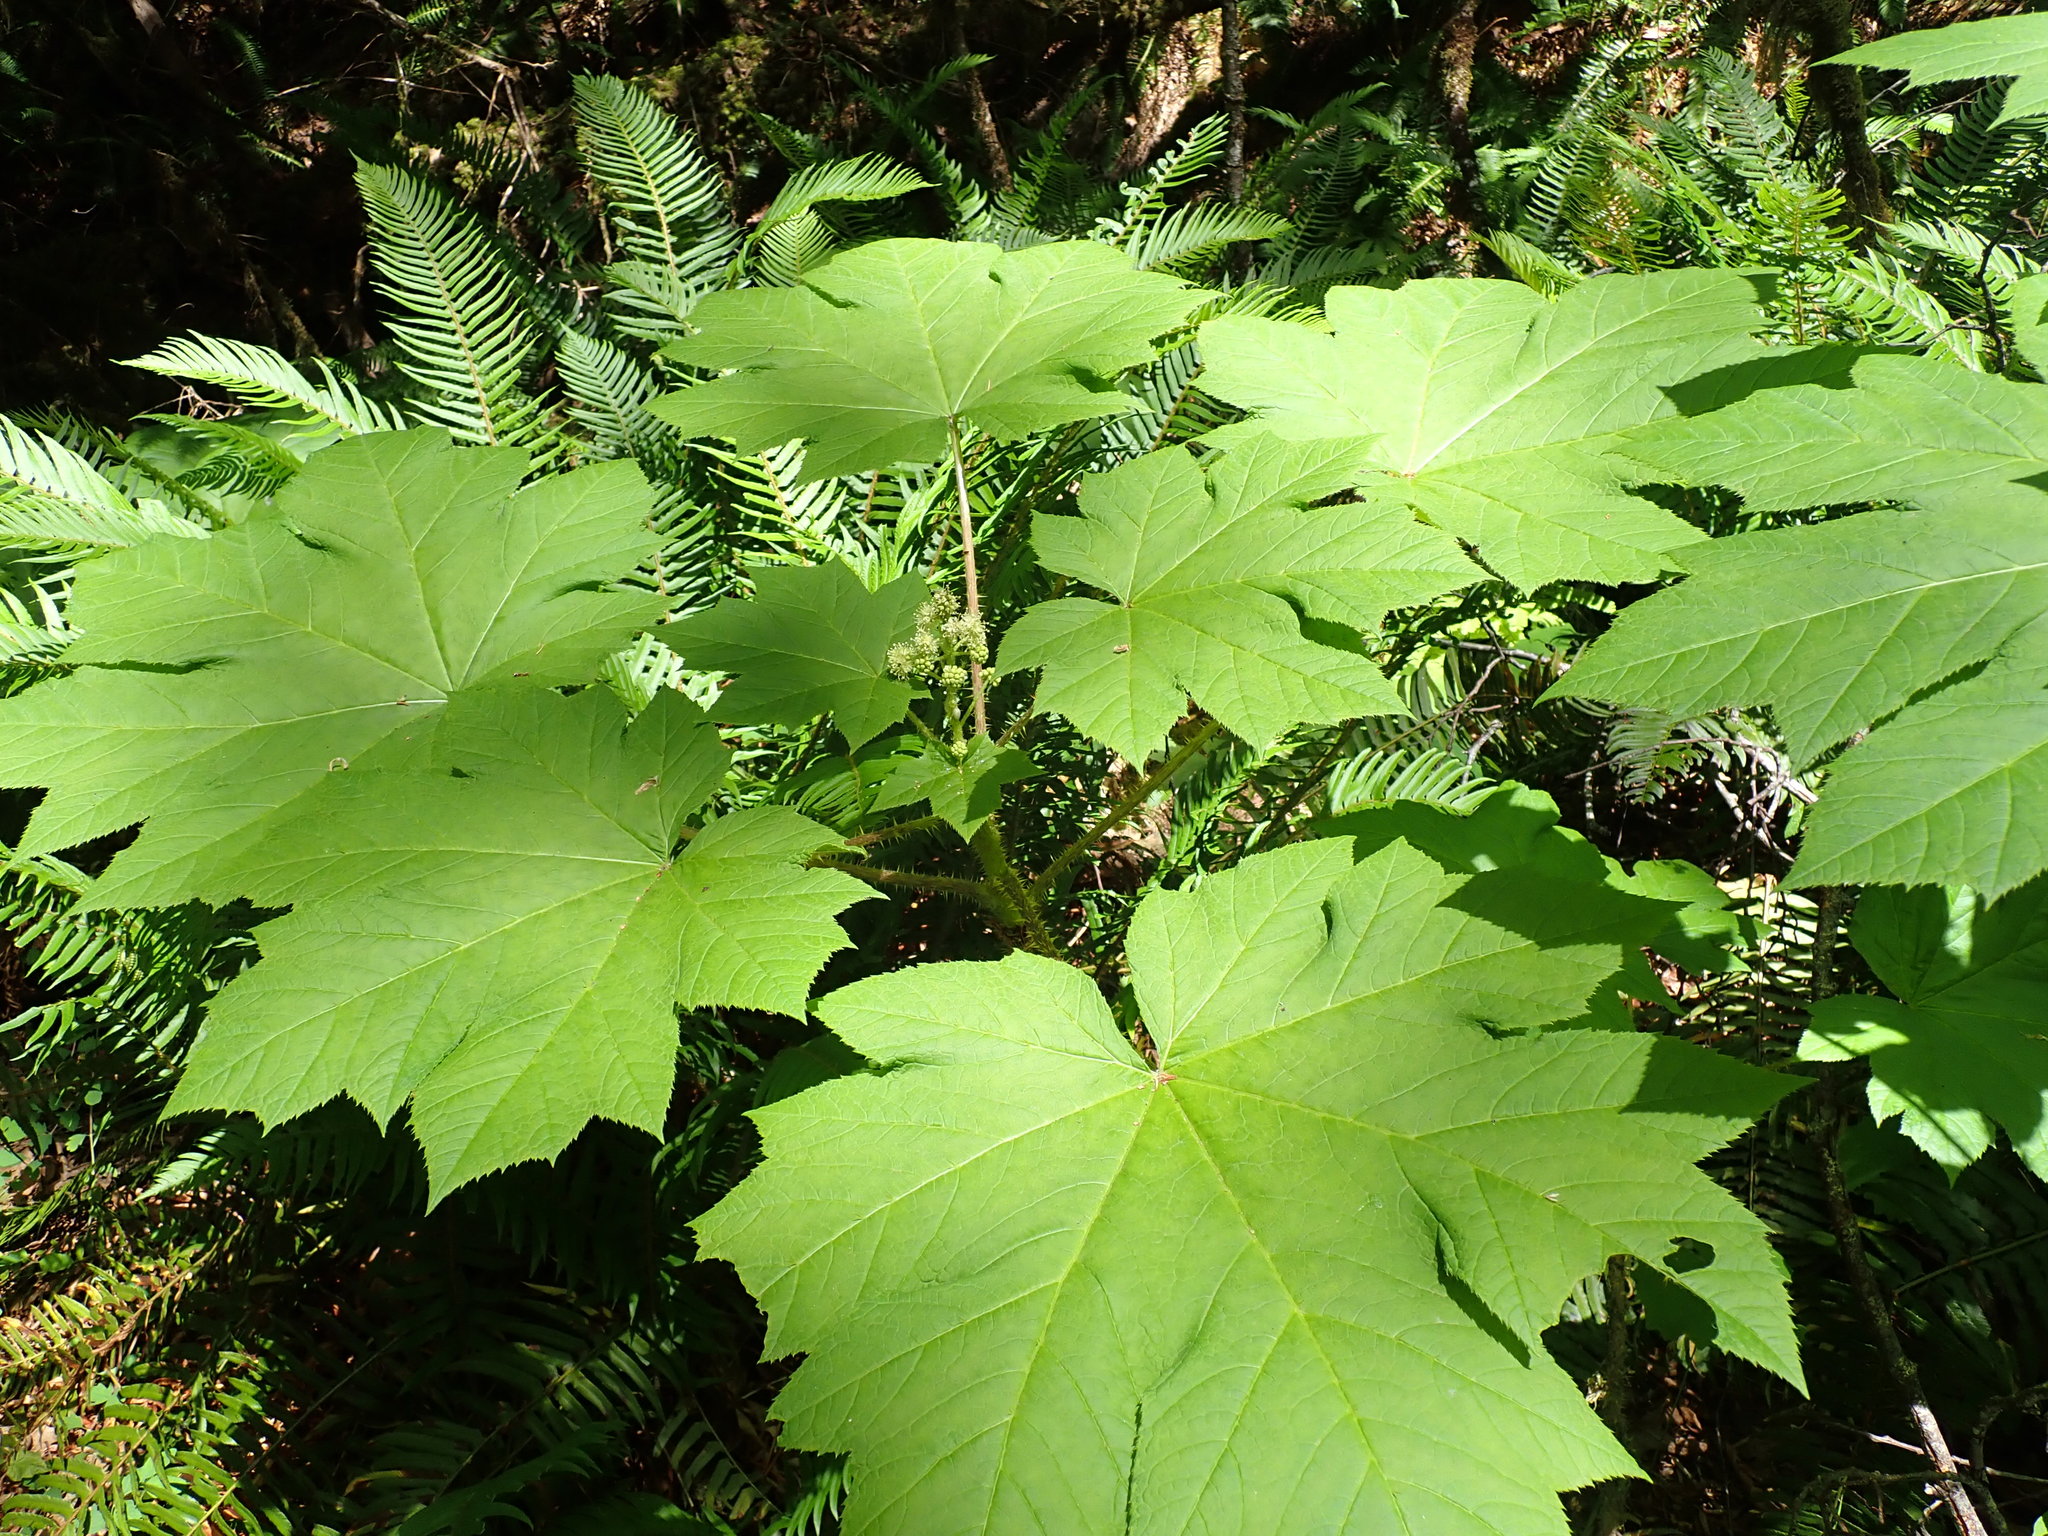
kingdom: Plantae
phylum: Tracheophyta
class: Magnoliopsida
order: Apiales
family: Araliaceae
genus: Oplopanax
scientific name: Oplopanax horridus
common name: Devil's walking-stick
